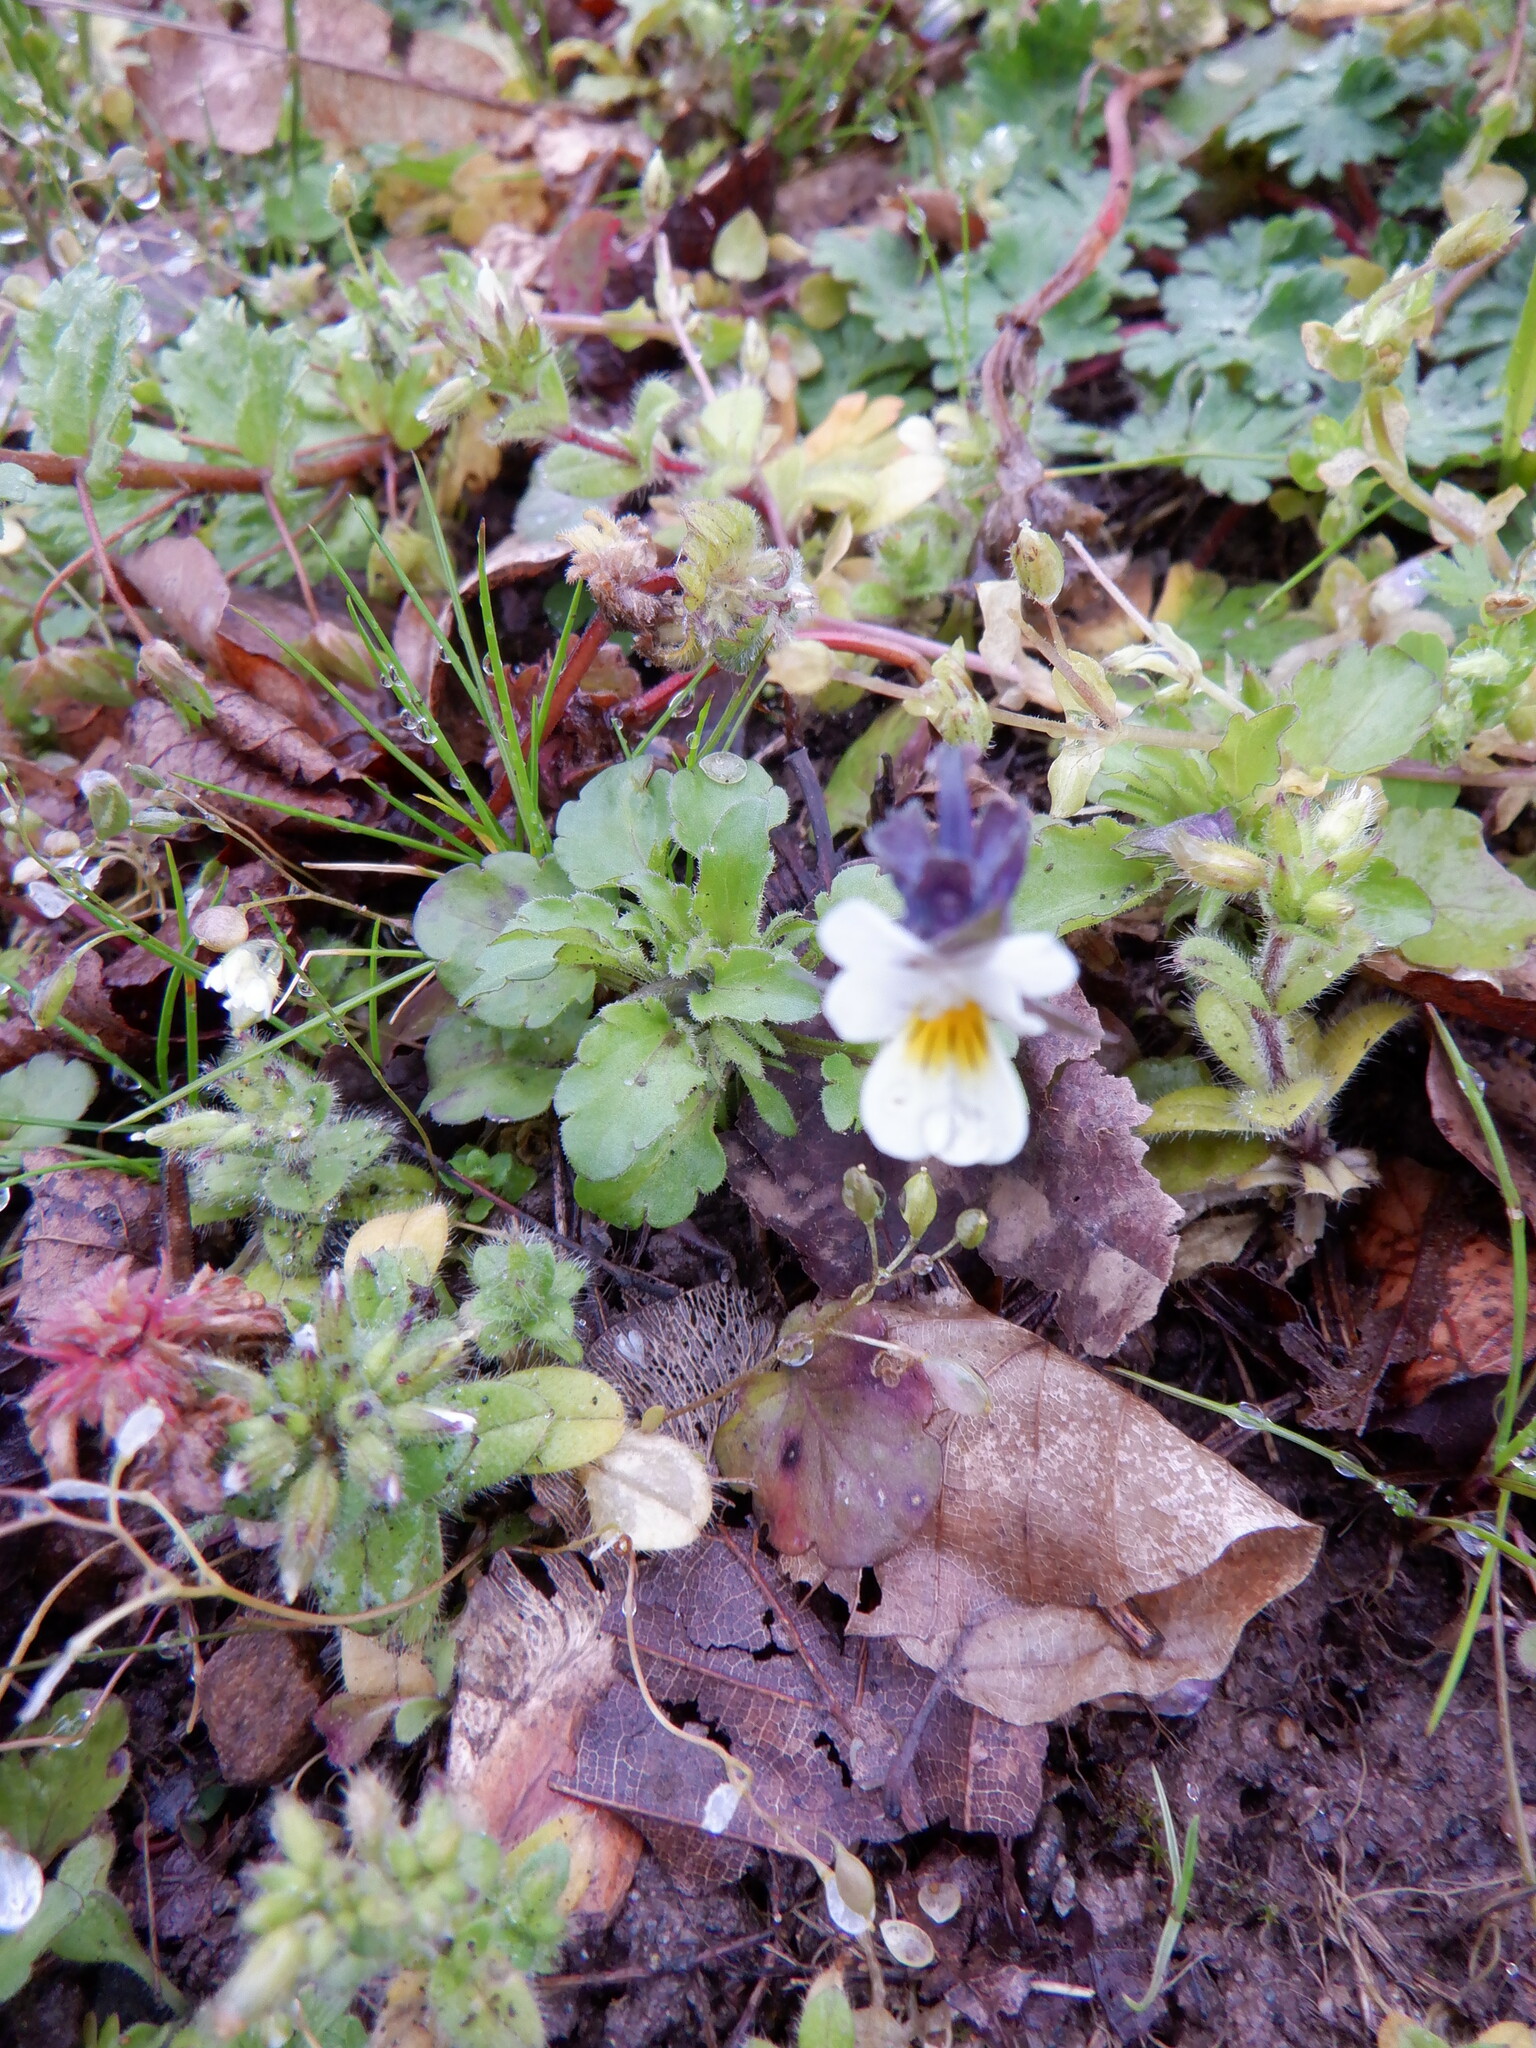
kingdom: Plantae
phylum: Tracheophyta
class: Magnoliopsida
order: Malpighiales
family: Violaceae
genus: Viola
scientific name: Viola arvensis
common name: Field pansy
